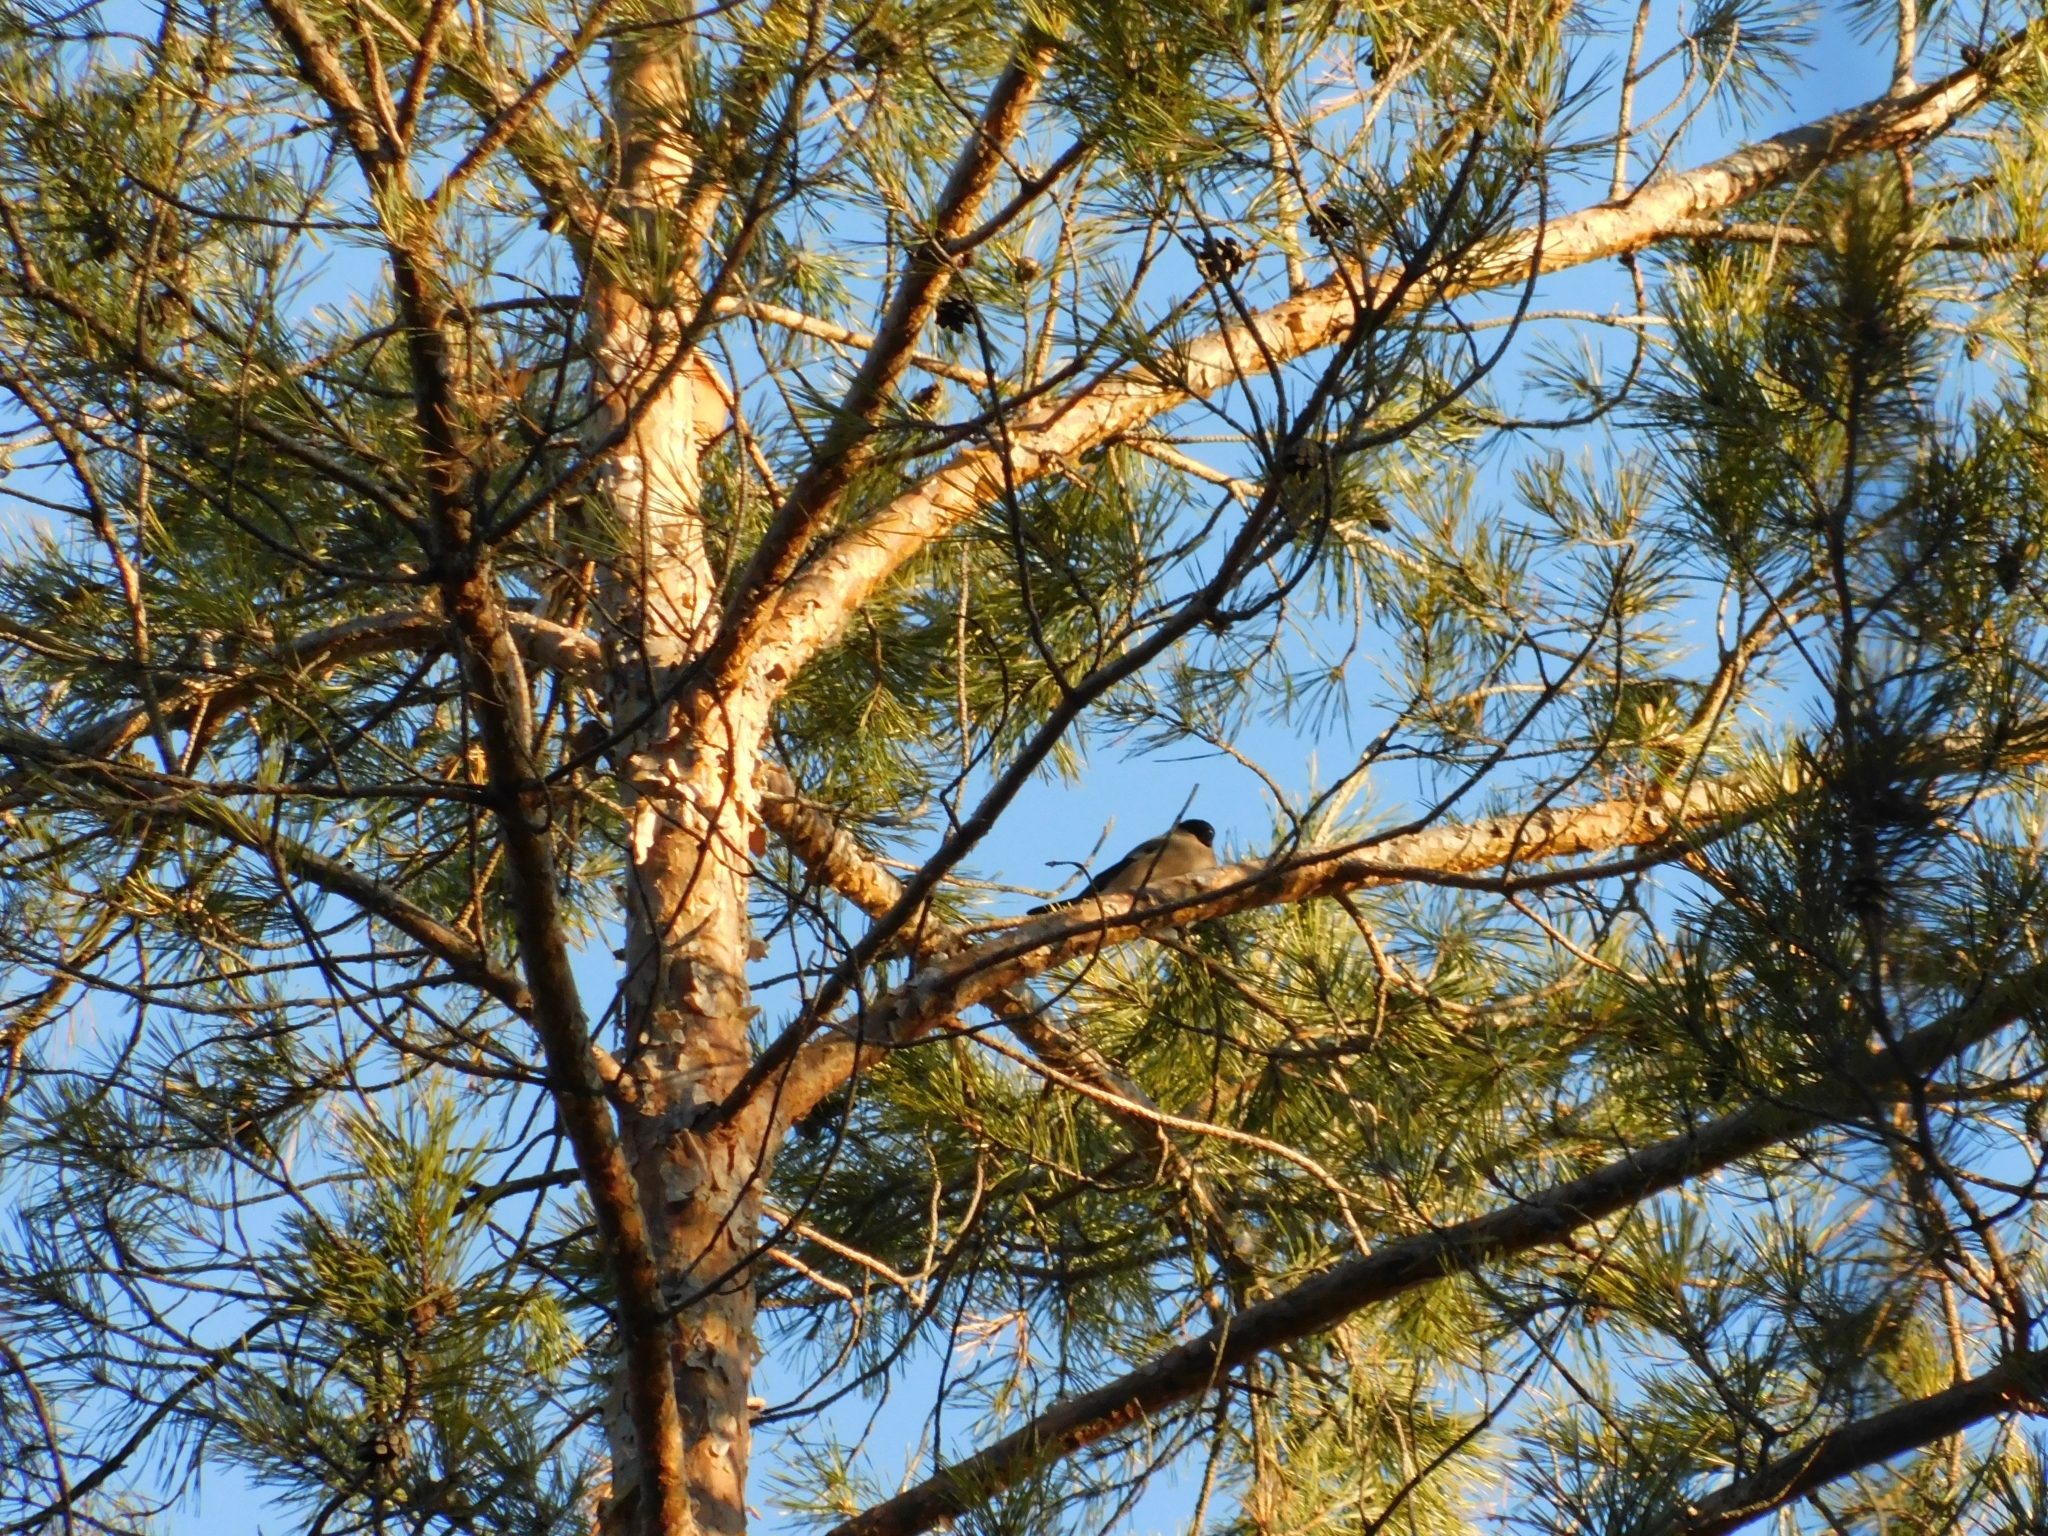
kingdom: Animalia
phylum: Chordata
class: Aves
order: Passeriformes
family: Fringillidae
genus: Pyrrhula
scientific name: Pyrrhula pyrrhula
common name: Eurasian bullfinch
